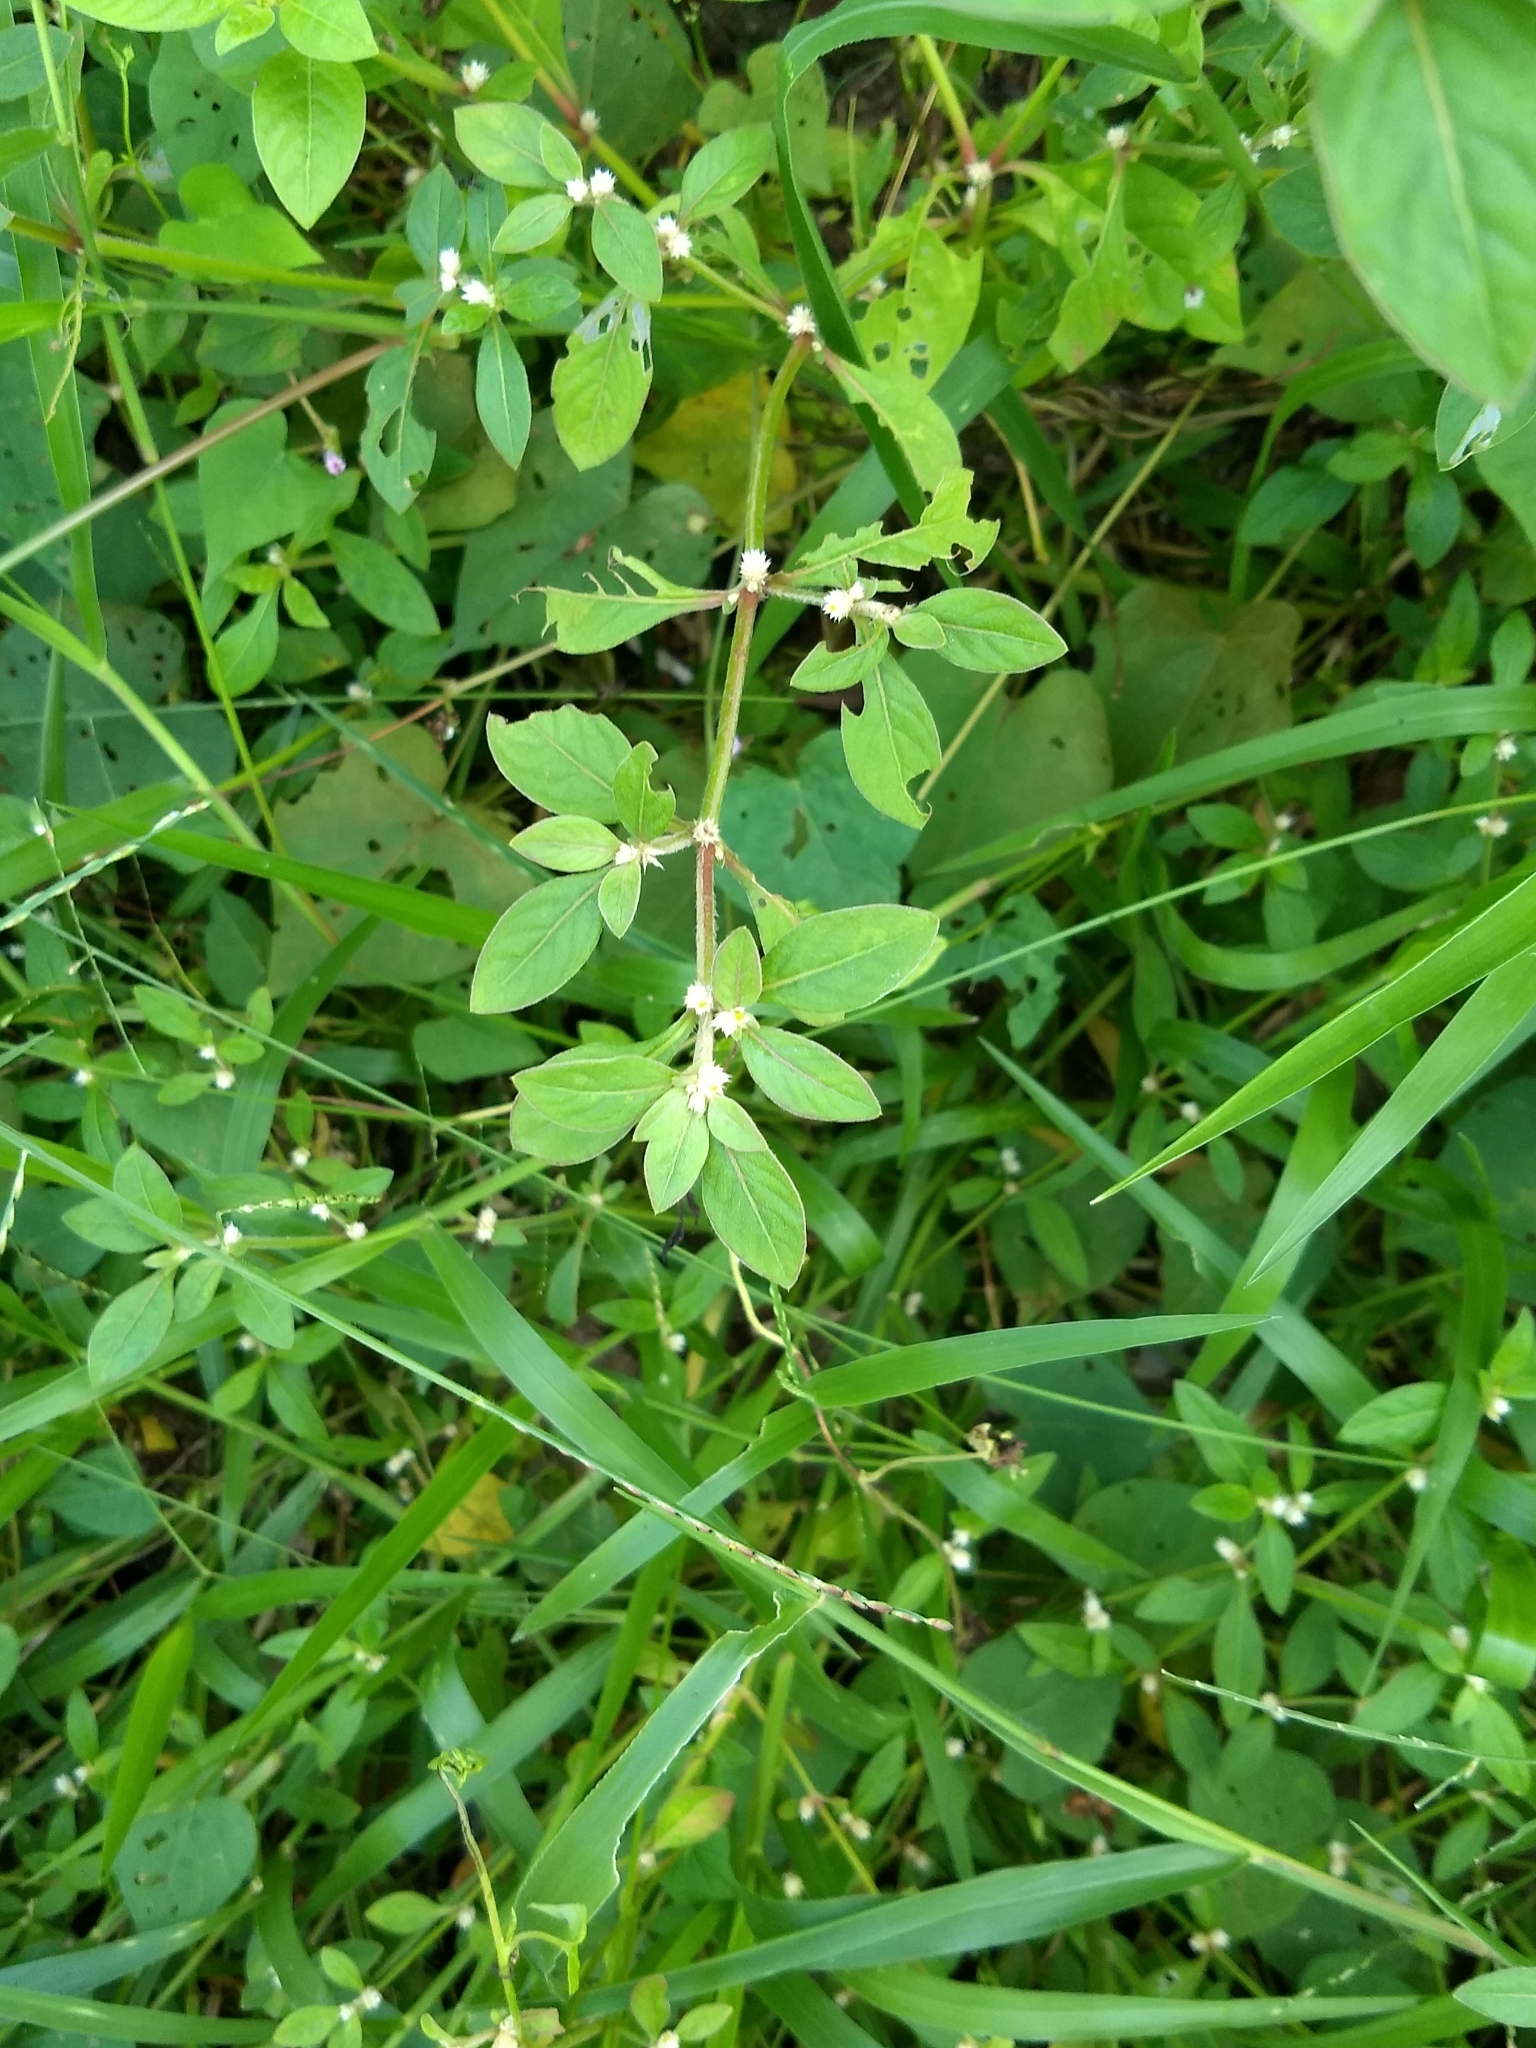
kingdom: Plantae
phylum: Tracheophyta
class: Magnoliopsida
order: Caryophyllales
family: Amaranthaceae
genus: Alternanthera
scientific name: Alternanthera ficoidea
